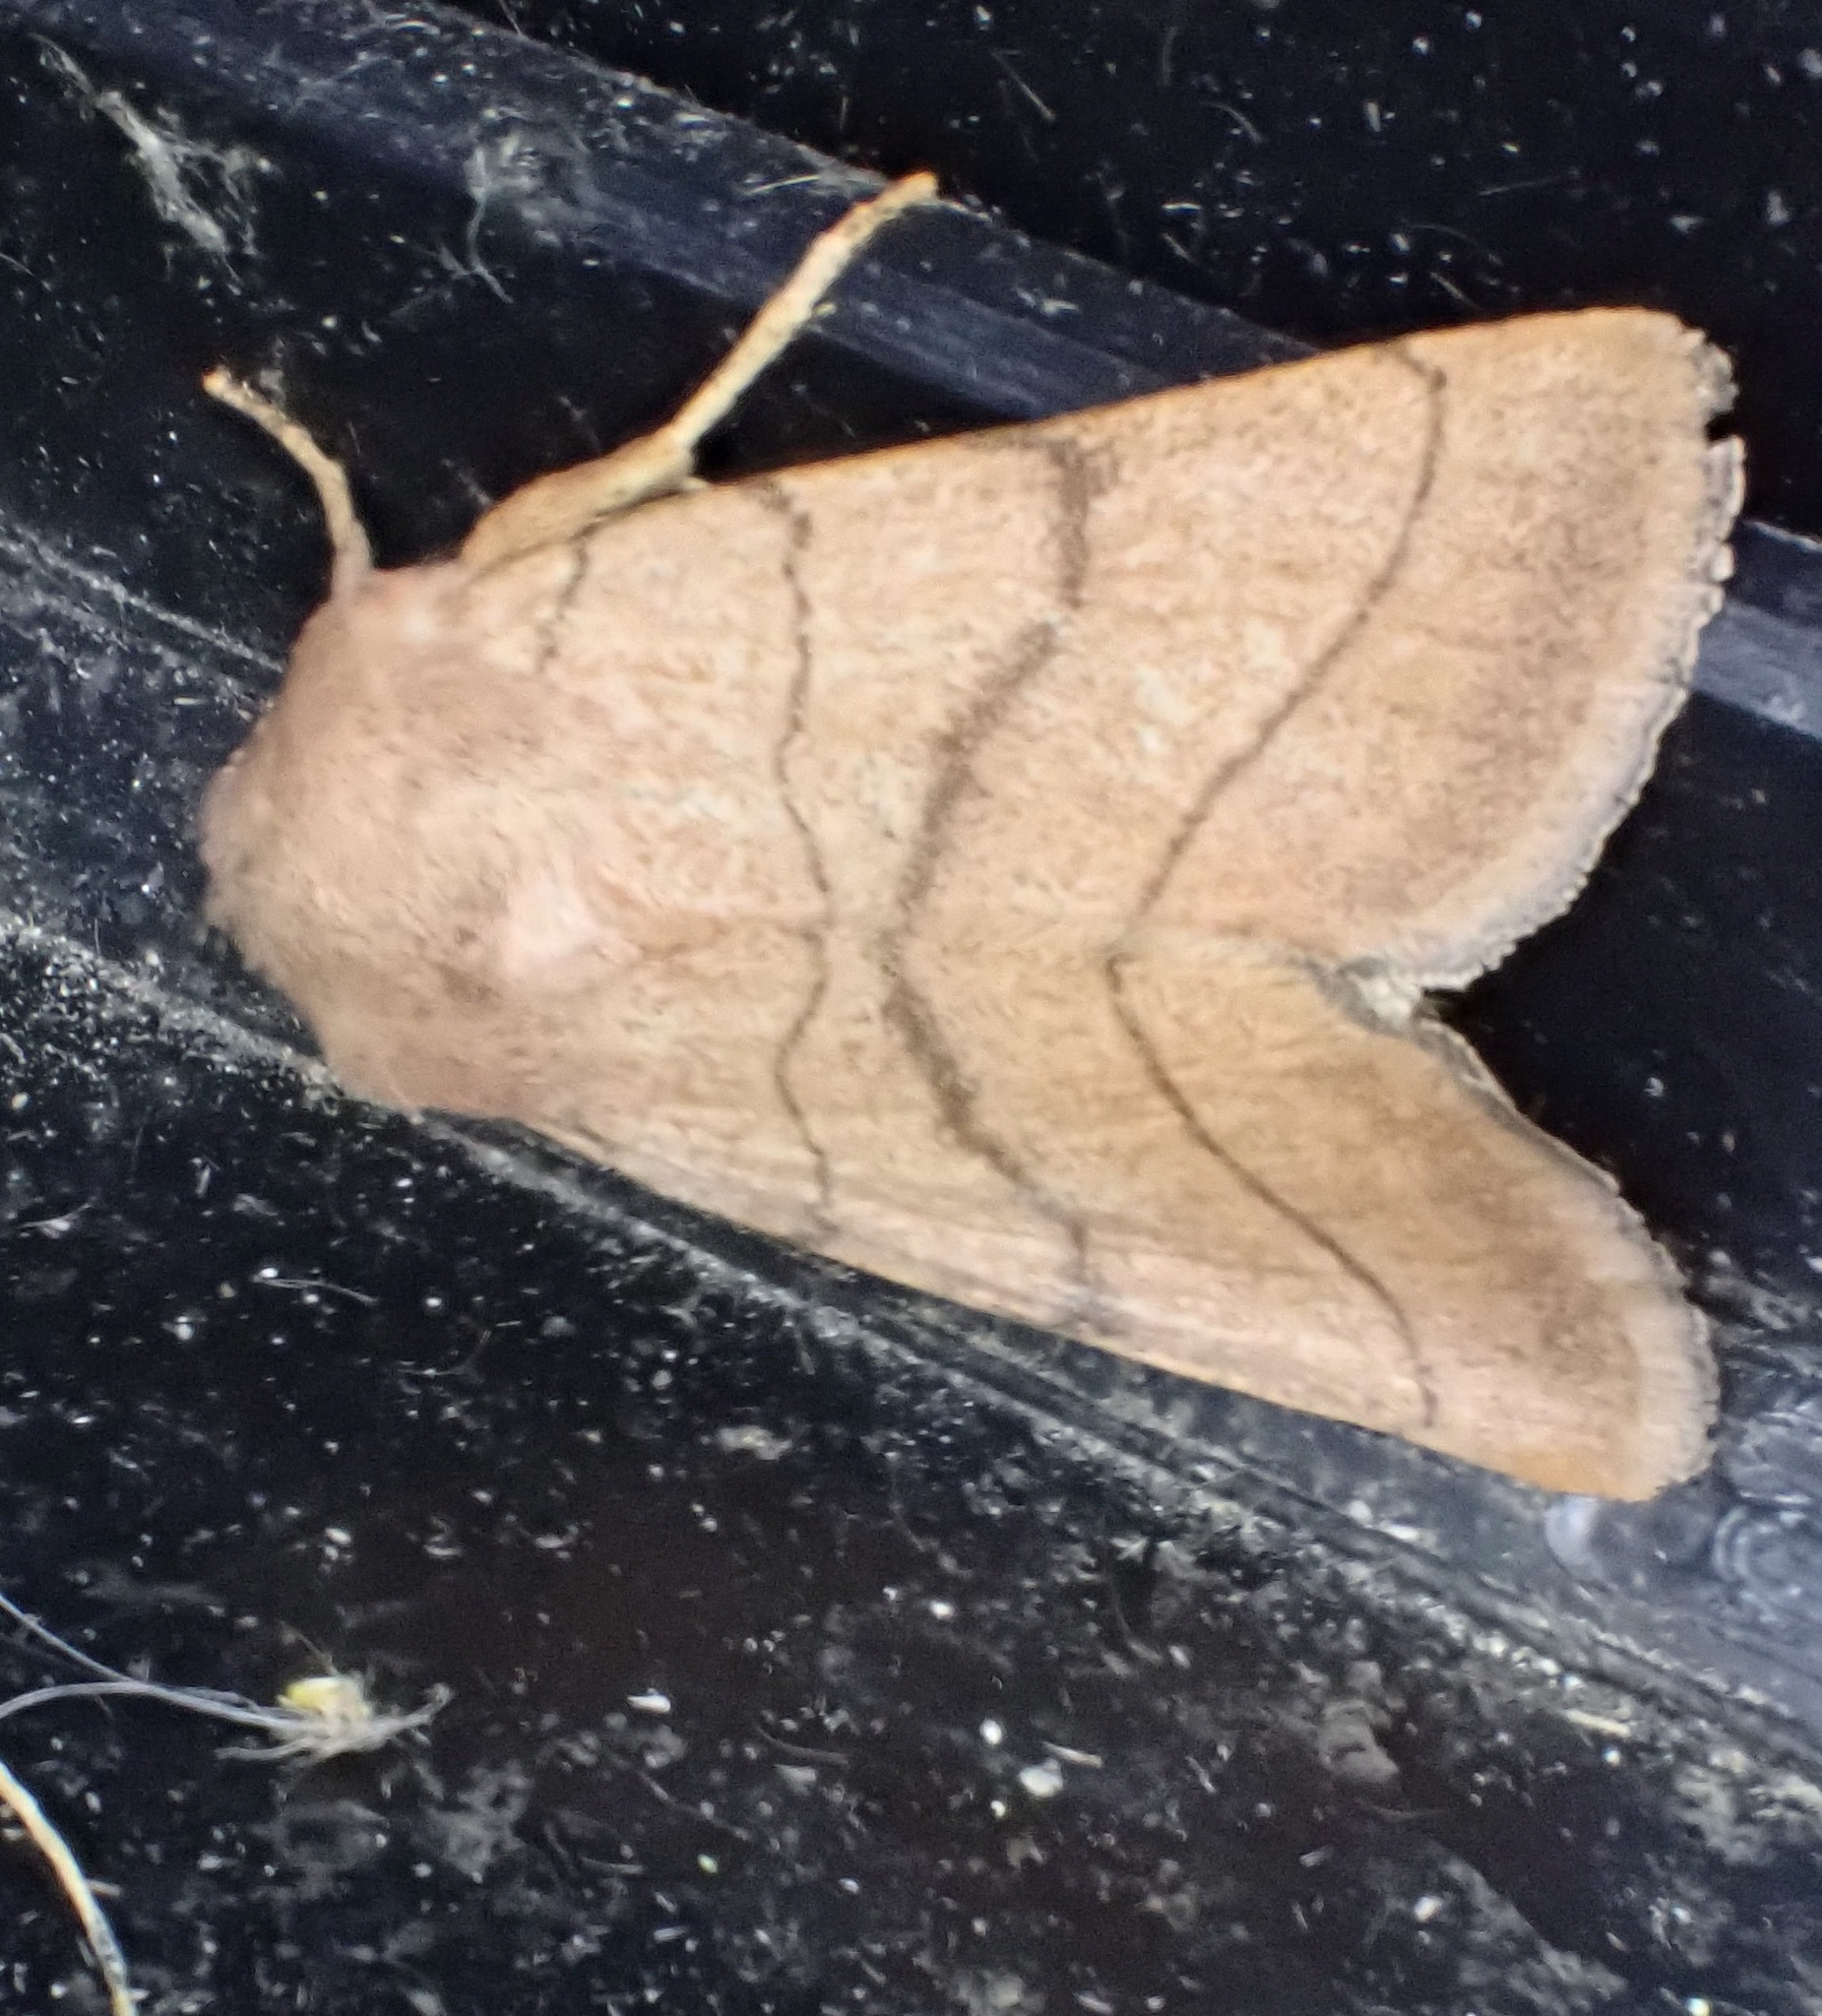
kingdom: Animalia
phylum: Arthropoda
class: Insecta
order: Lepidoptera
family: Noctuidae
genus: Charanyca
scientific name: Charanyca trigrammica
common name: Treble lines
